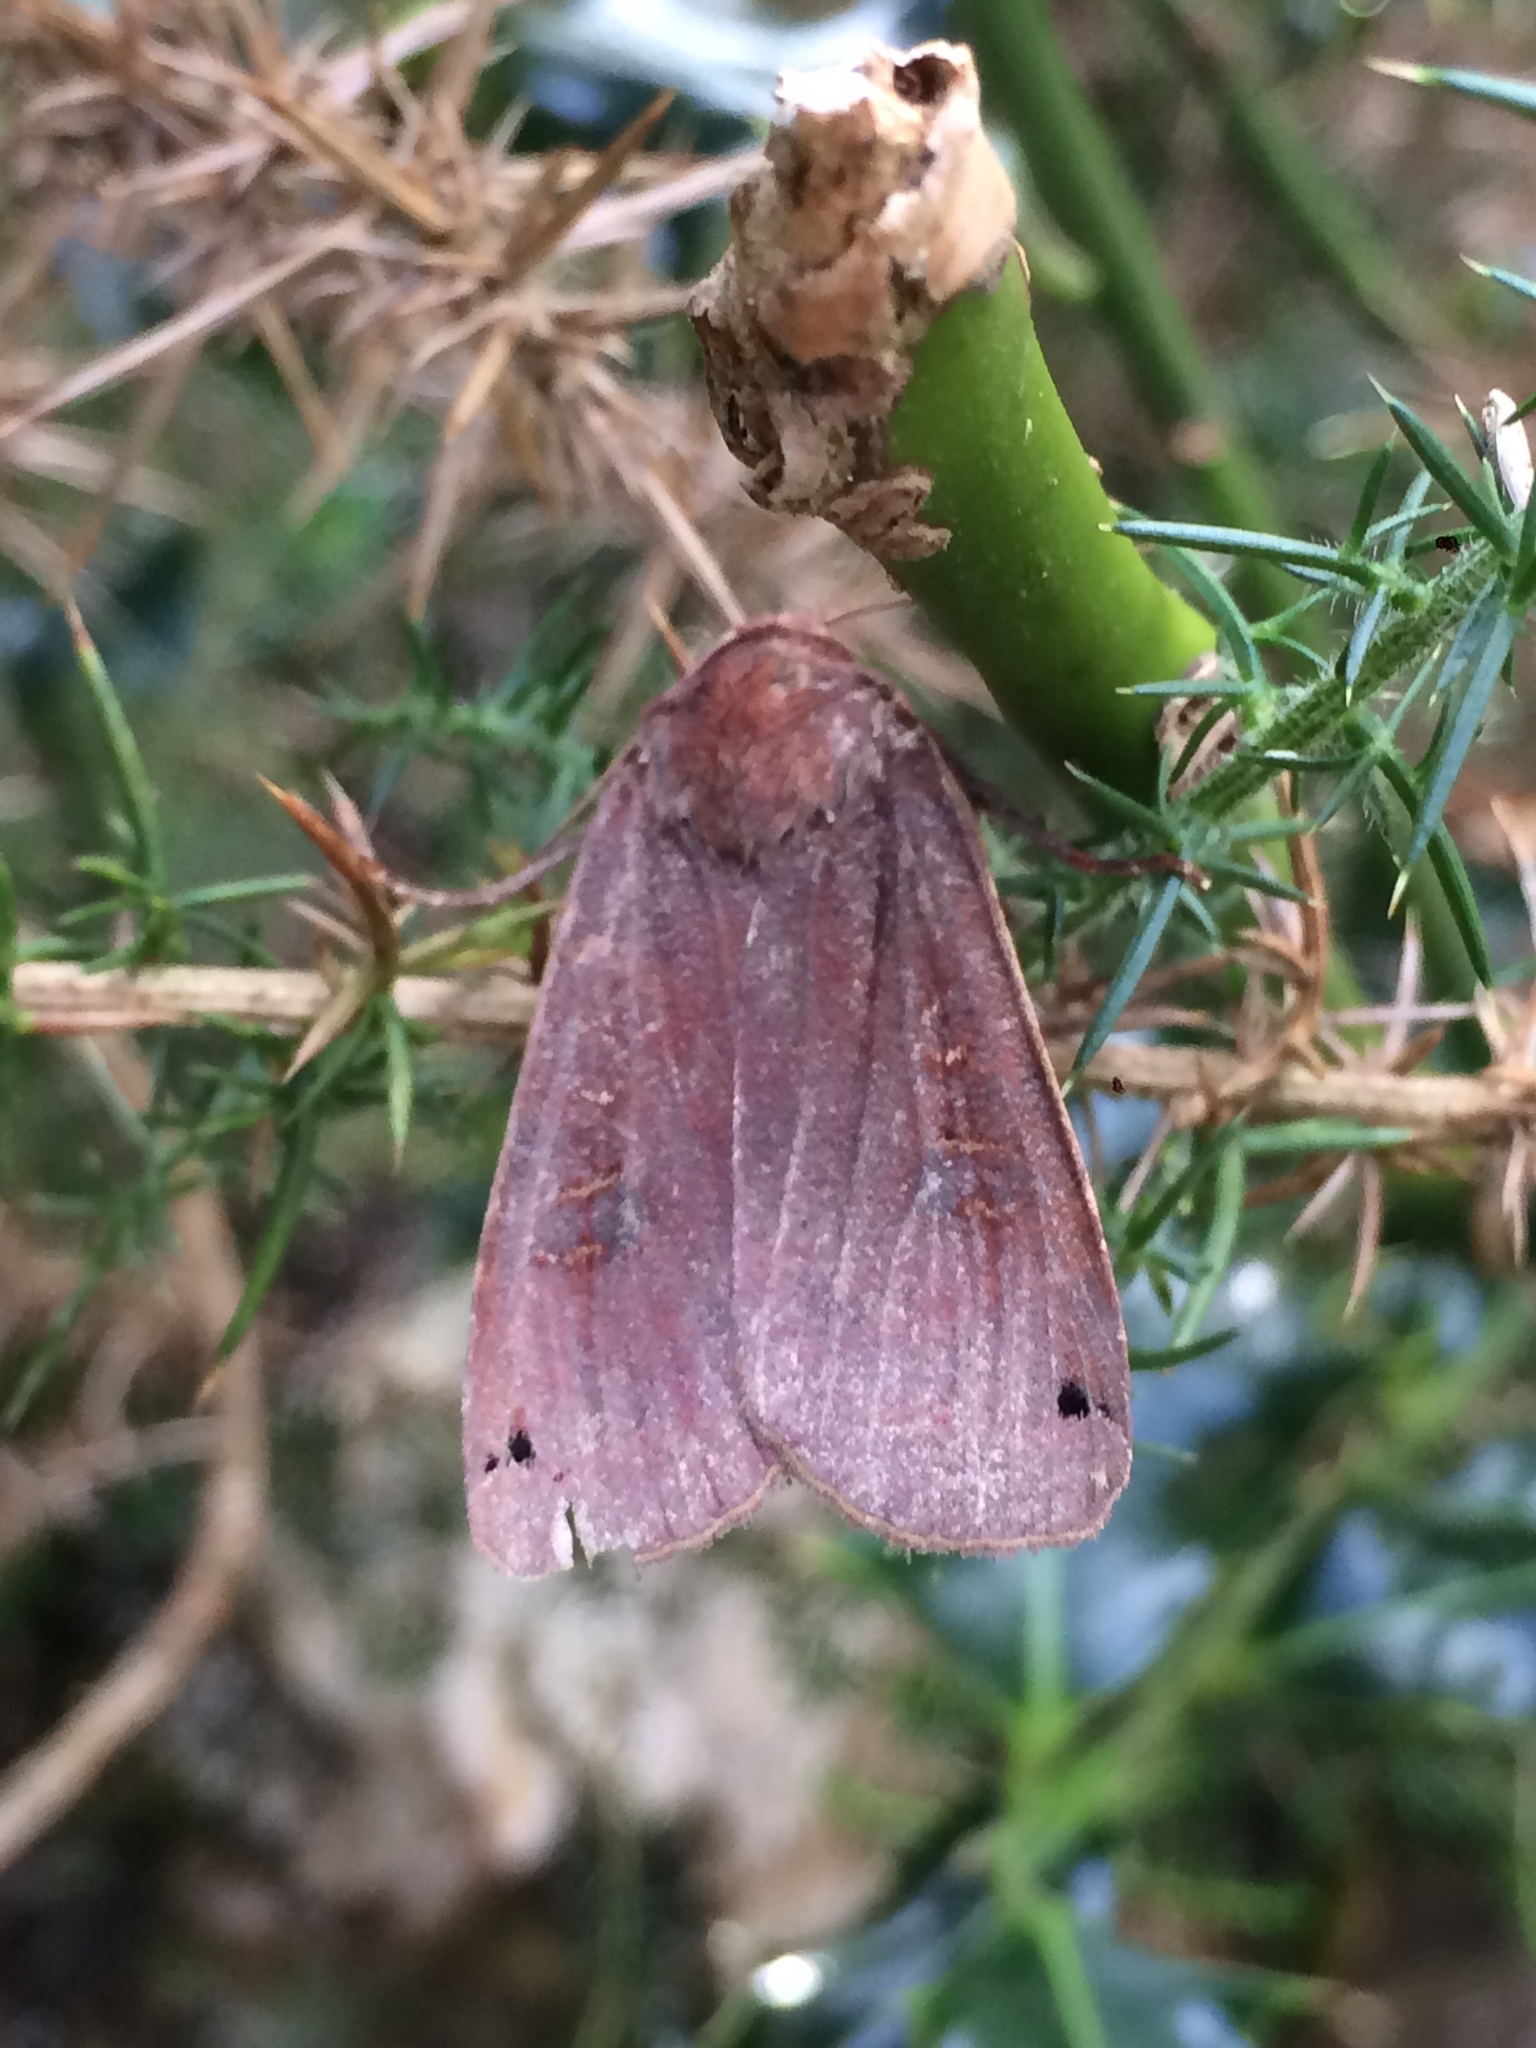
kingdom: Animalia
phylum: Arthropoda
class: Insecta
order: Lepidoptera
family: Noctuidae
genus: Noctua
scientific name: Noctua pronuba
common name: Large yellow underwing
